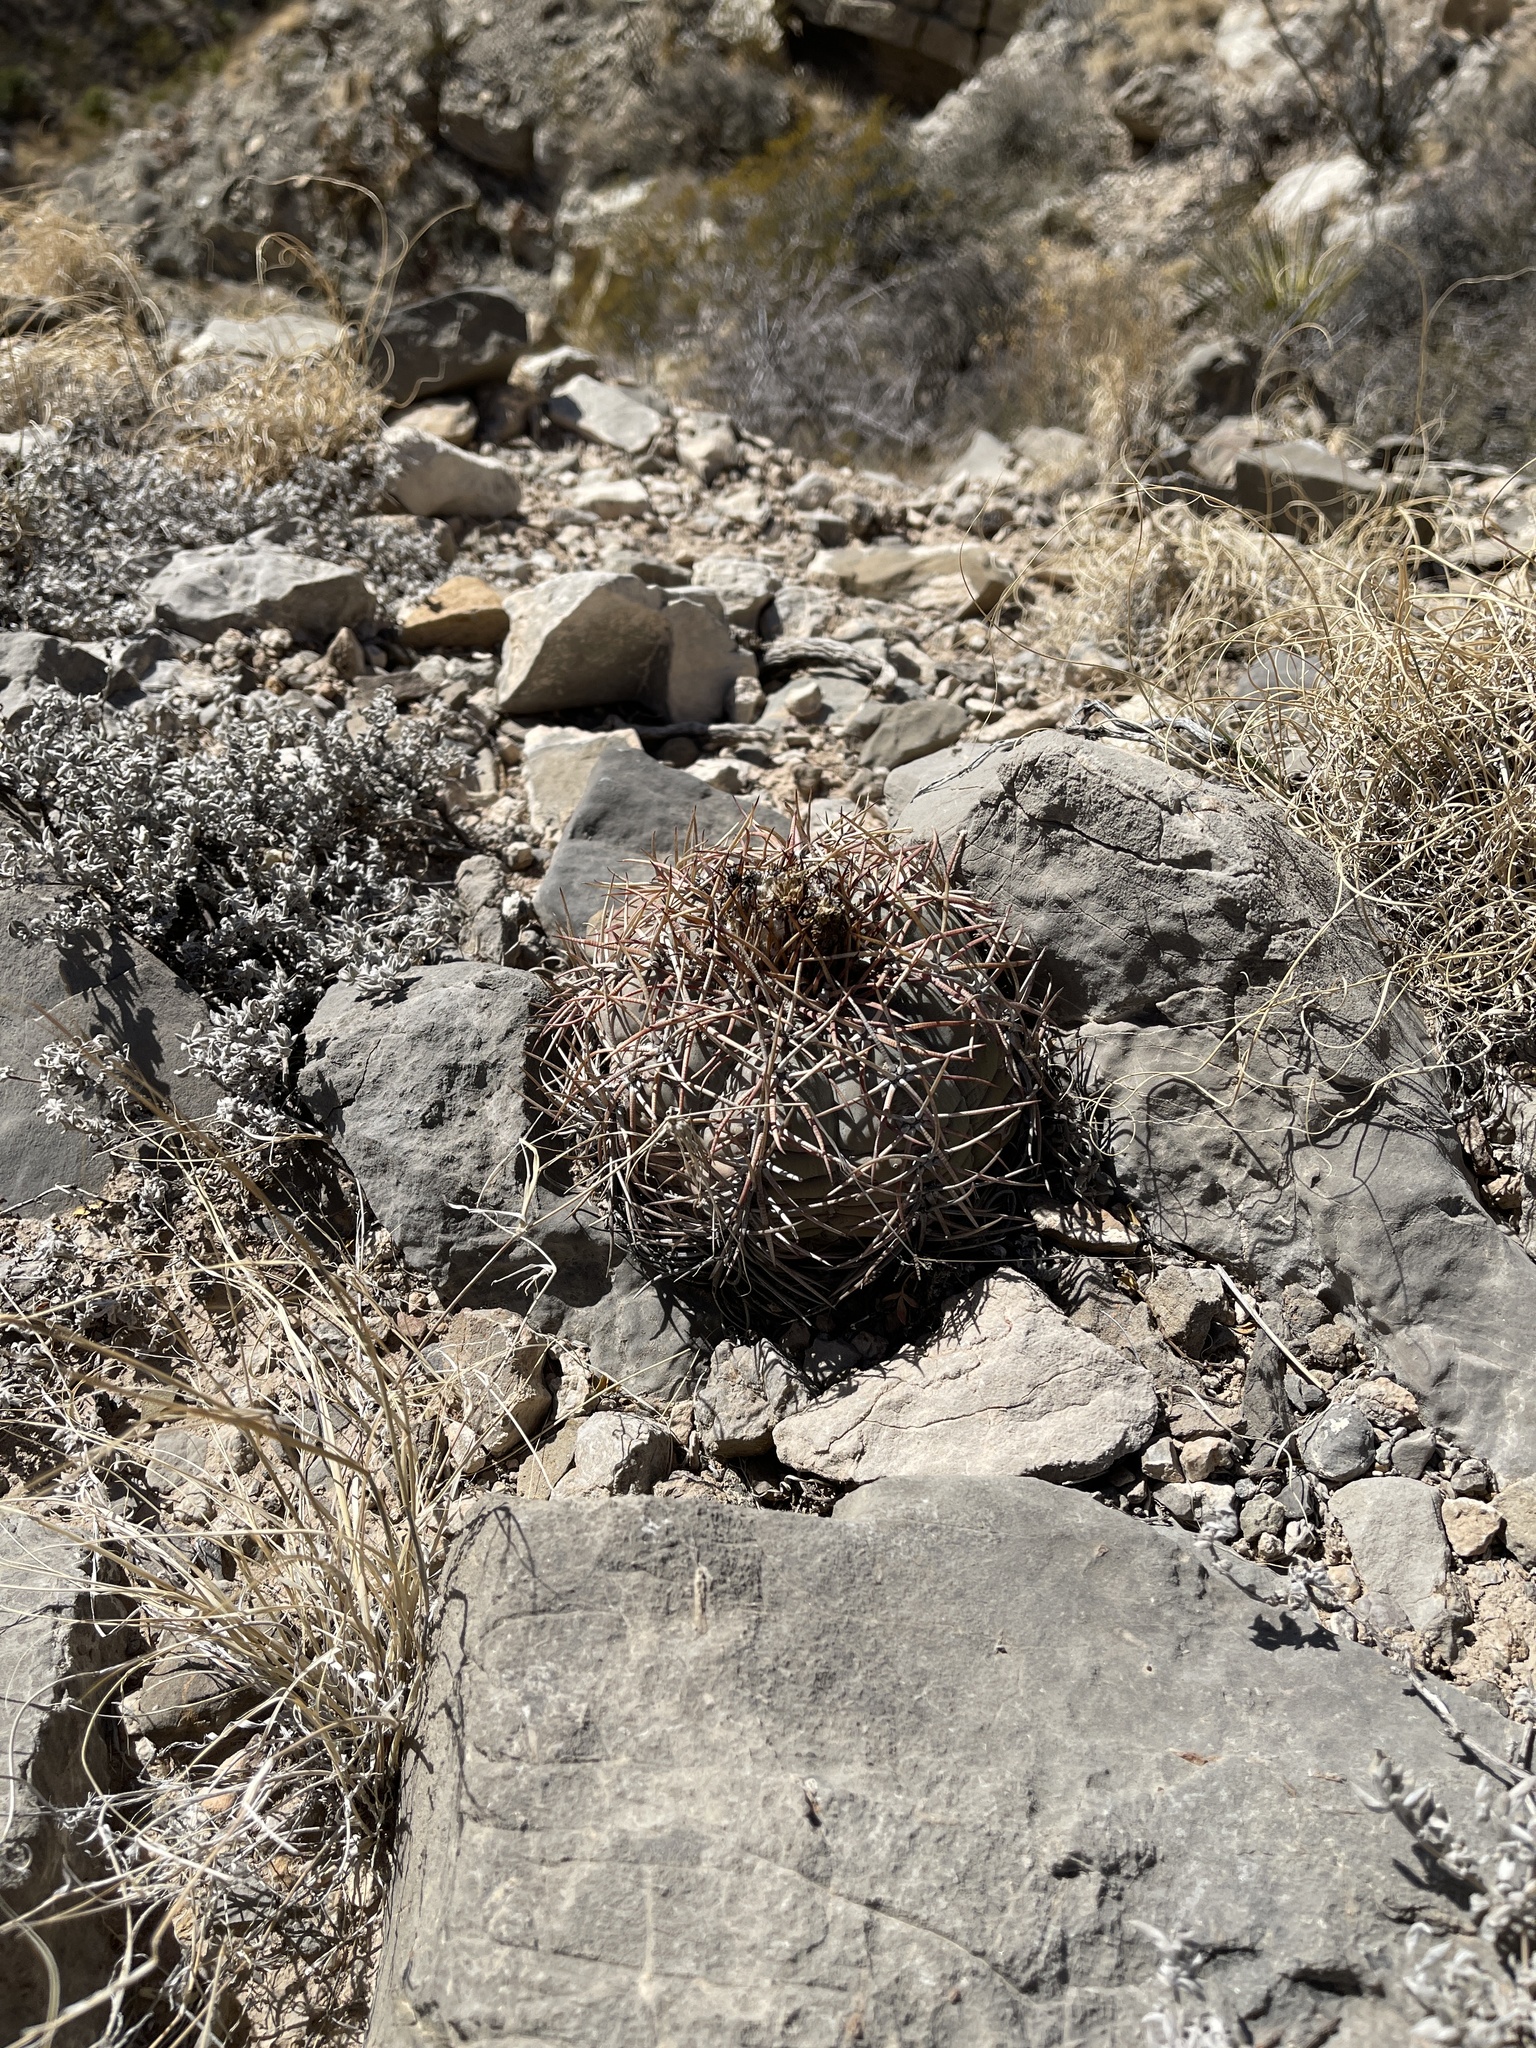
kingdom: Plantae
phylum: Tracheophyta
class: Magnoliopsida
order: Caryophyllales
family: Cactaceae
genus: Echinocactus
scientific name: Echinocactus horizonthalonius
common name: Devilshead
